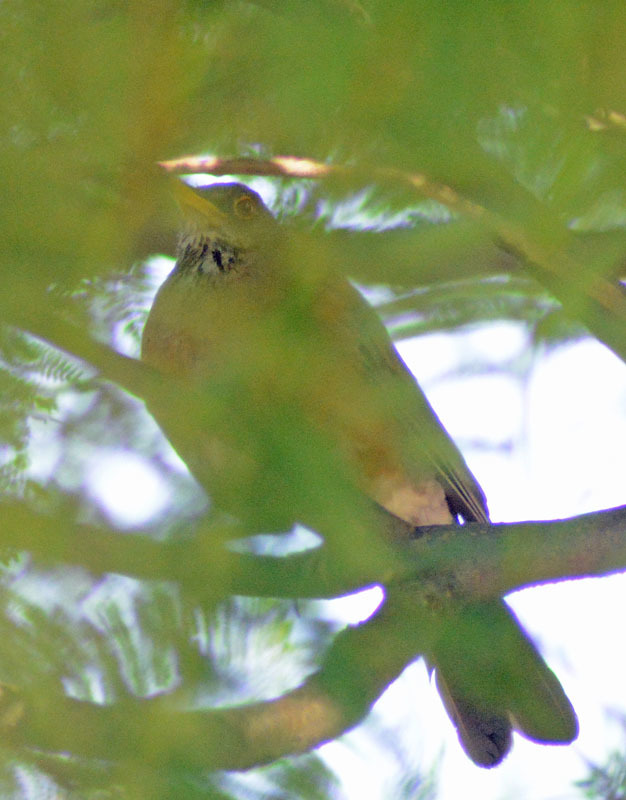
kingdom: Animalia
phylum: Chordata
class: Aves
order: Passeriformes
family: Turdidae
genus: Turdus
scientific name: Turdus rufopalliatus
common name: Rufous-backed robin
